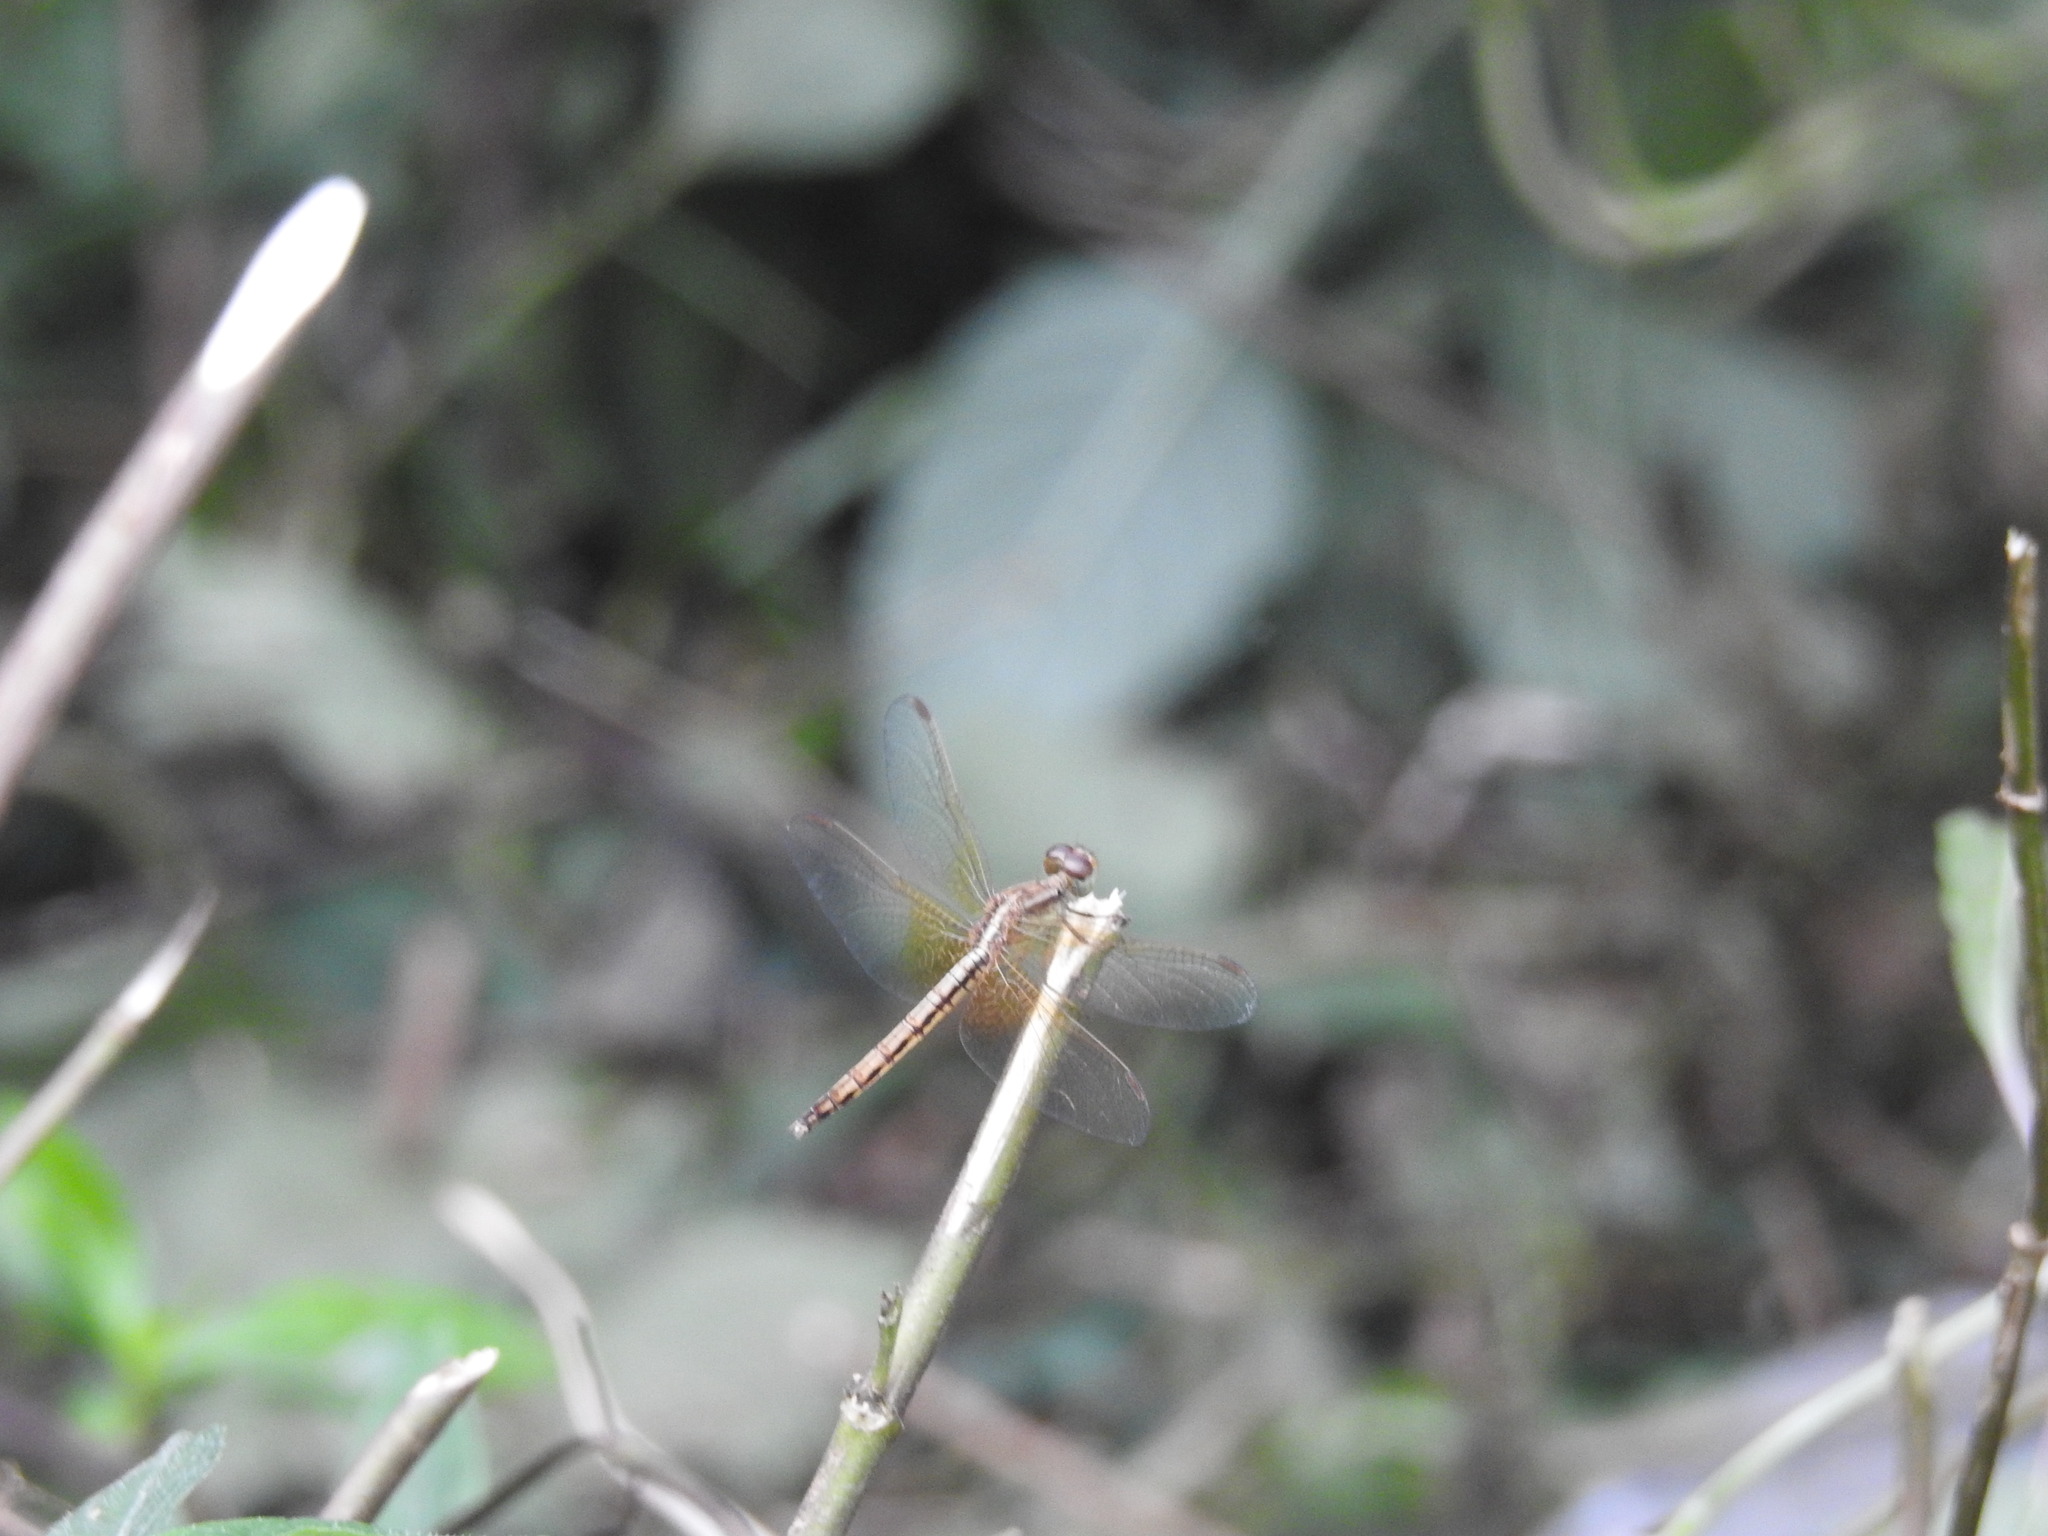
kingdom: Animalia
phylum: Arthropoda
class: Insecta
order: Odonata
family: Libellulidae
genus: Neurothemis
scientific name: Neurothemis intermedia
